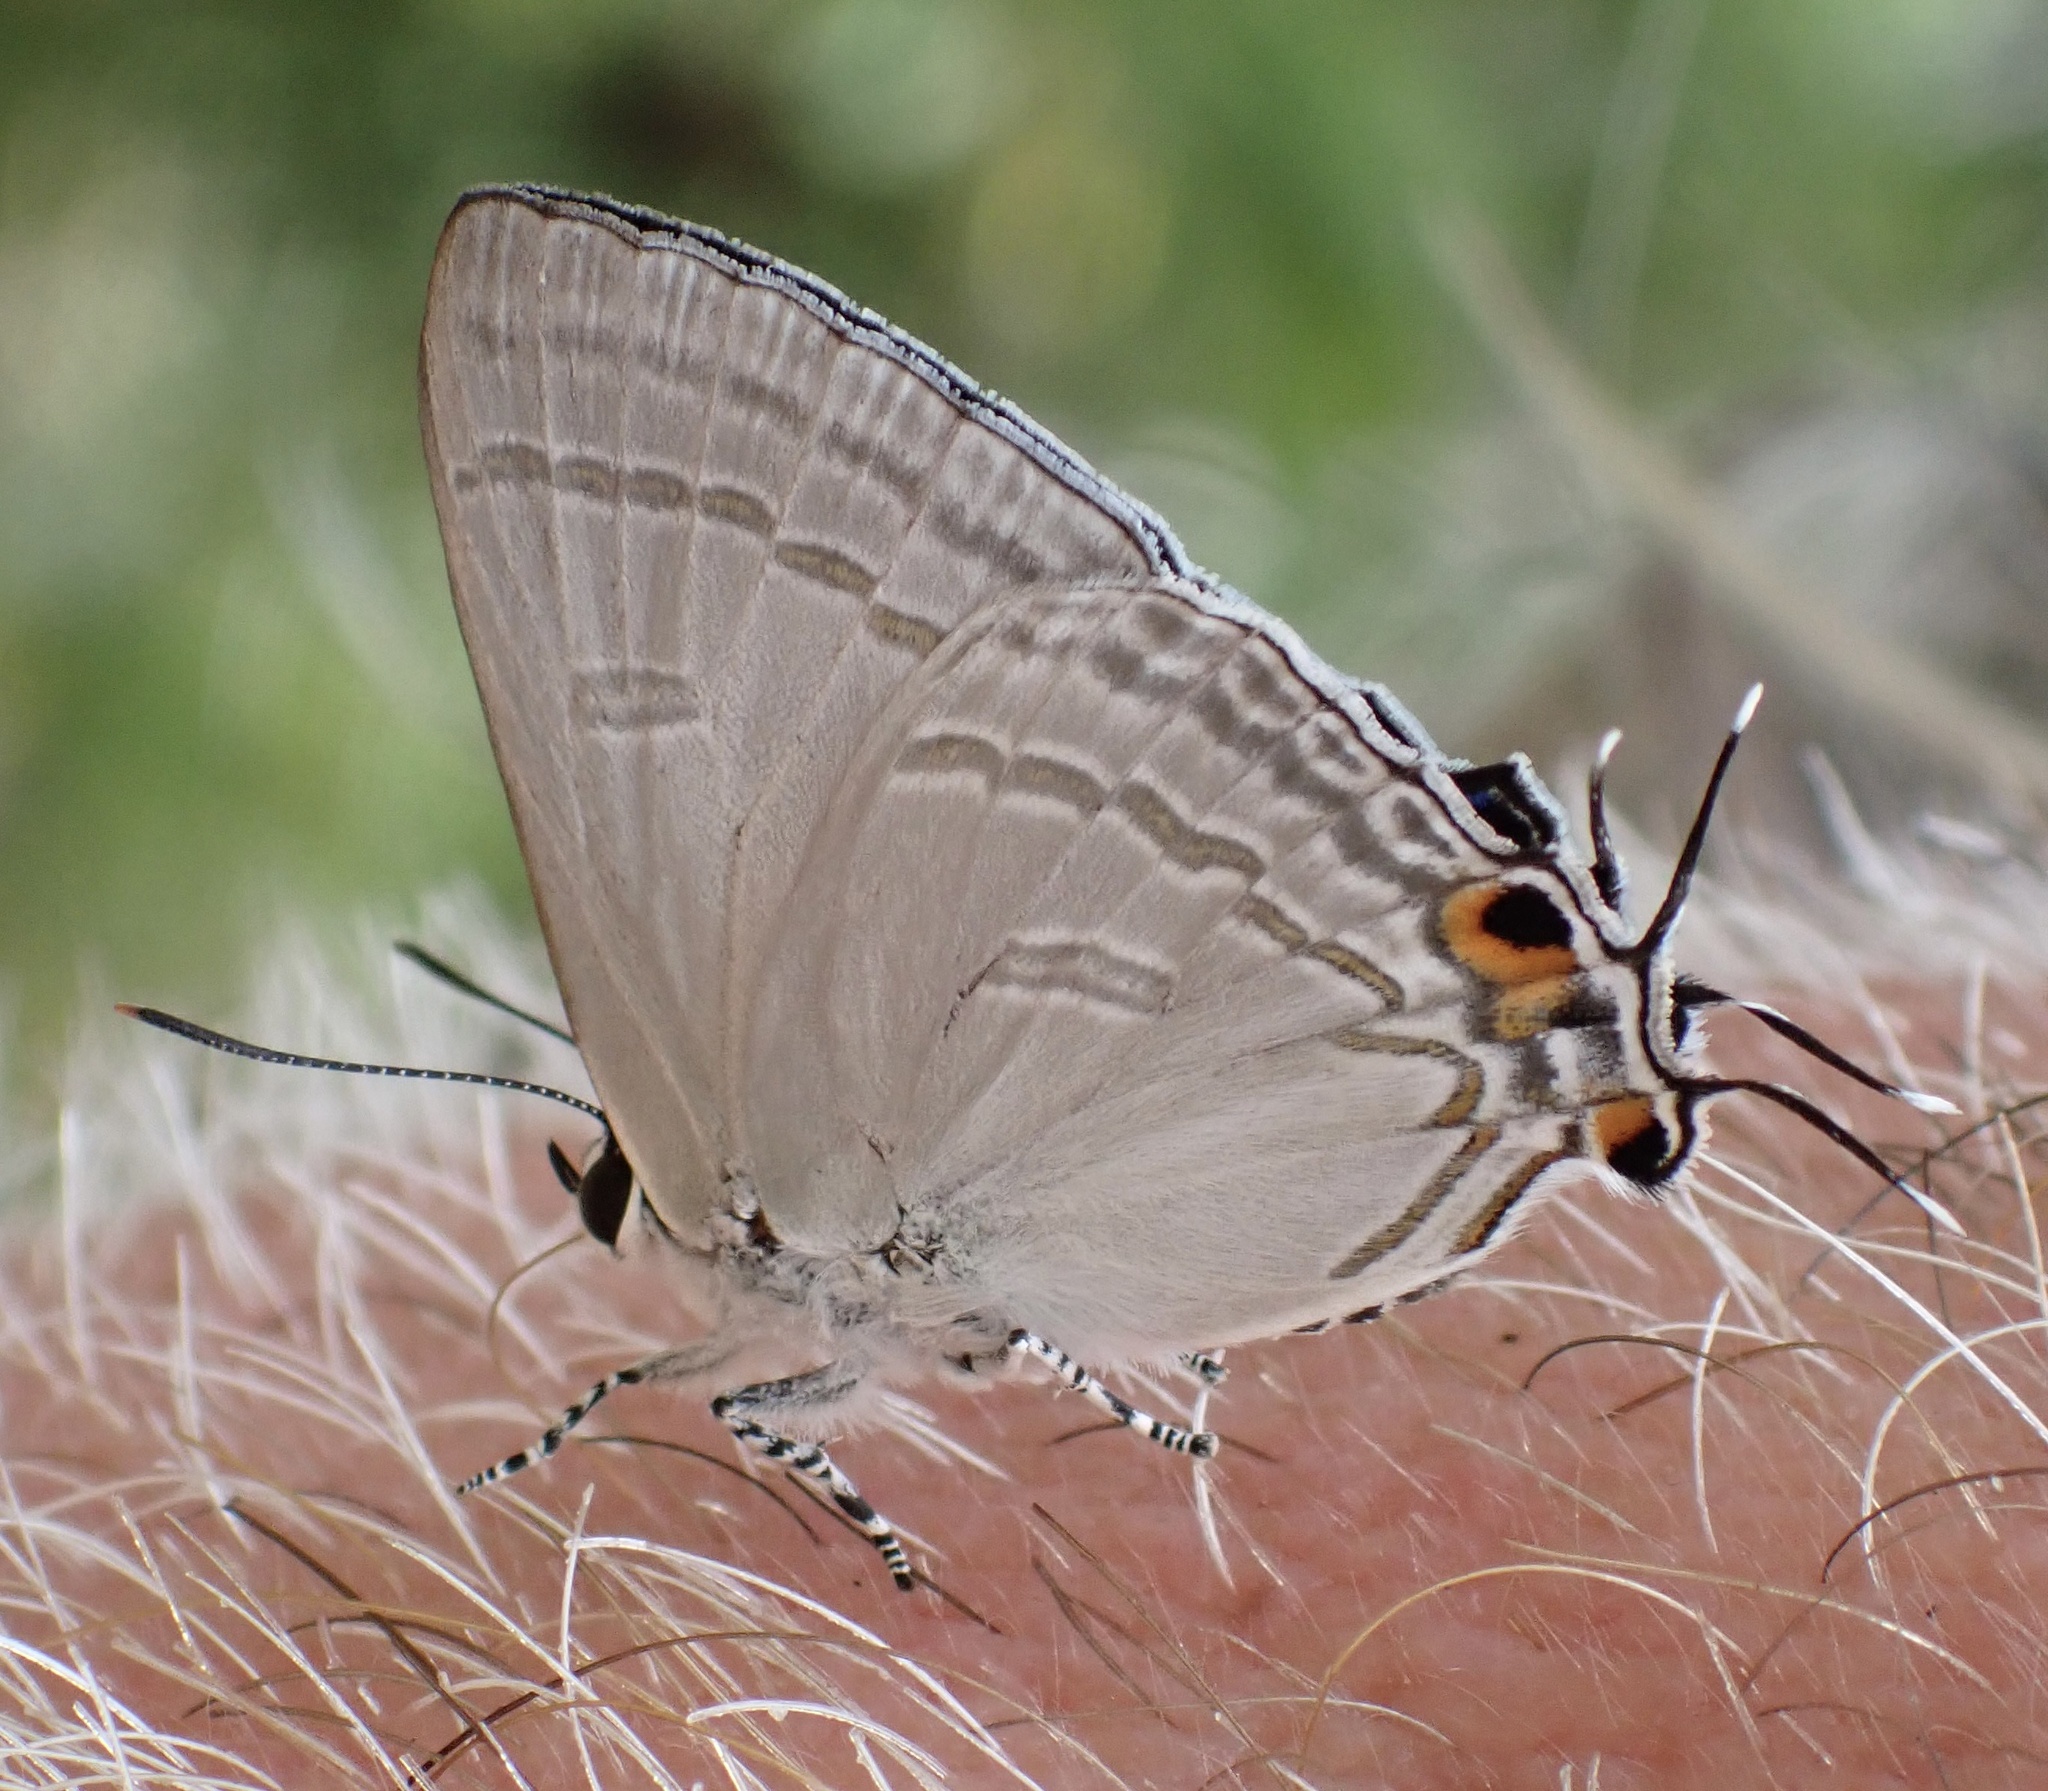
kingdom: Animalia
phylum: Arthropoda
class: Insecta
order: Lepidoptera
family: Lycaenidae
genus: Hypolycaena
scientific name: Hypolycaena phorbas
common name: Black-spotted flash
